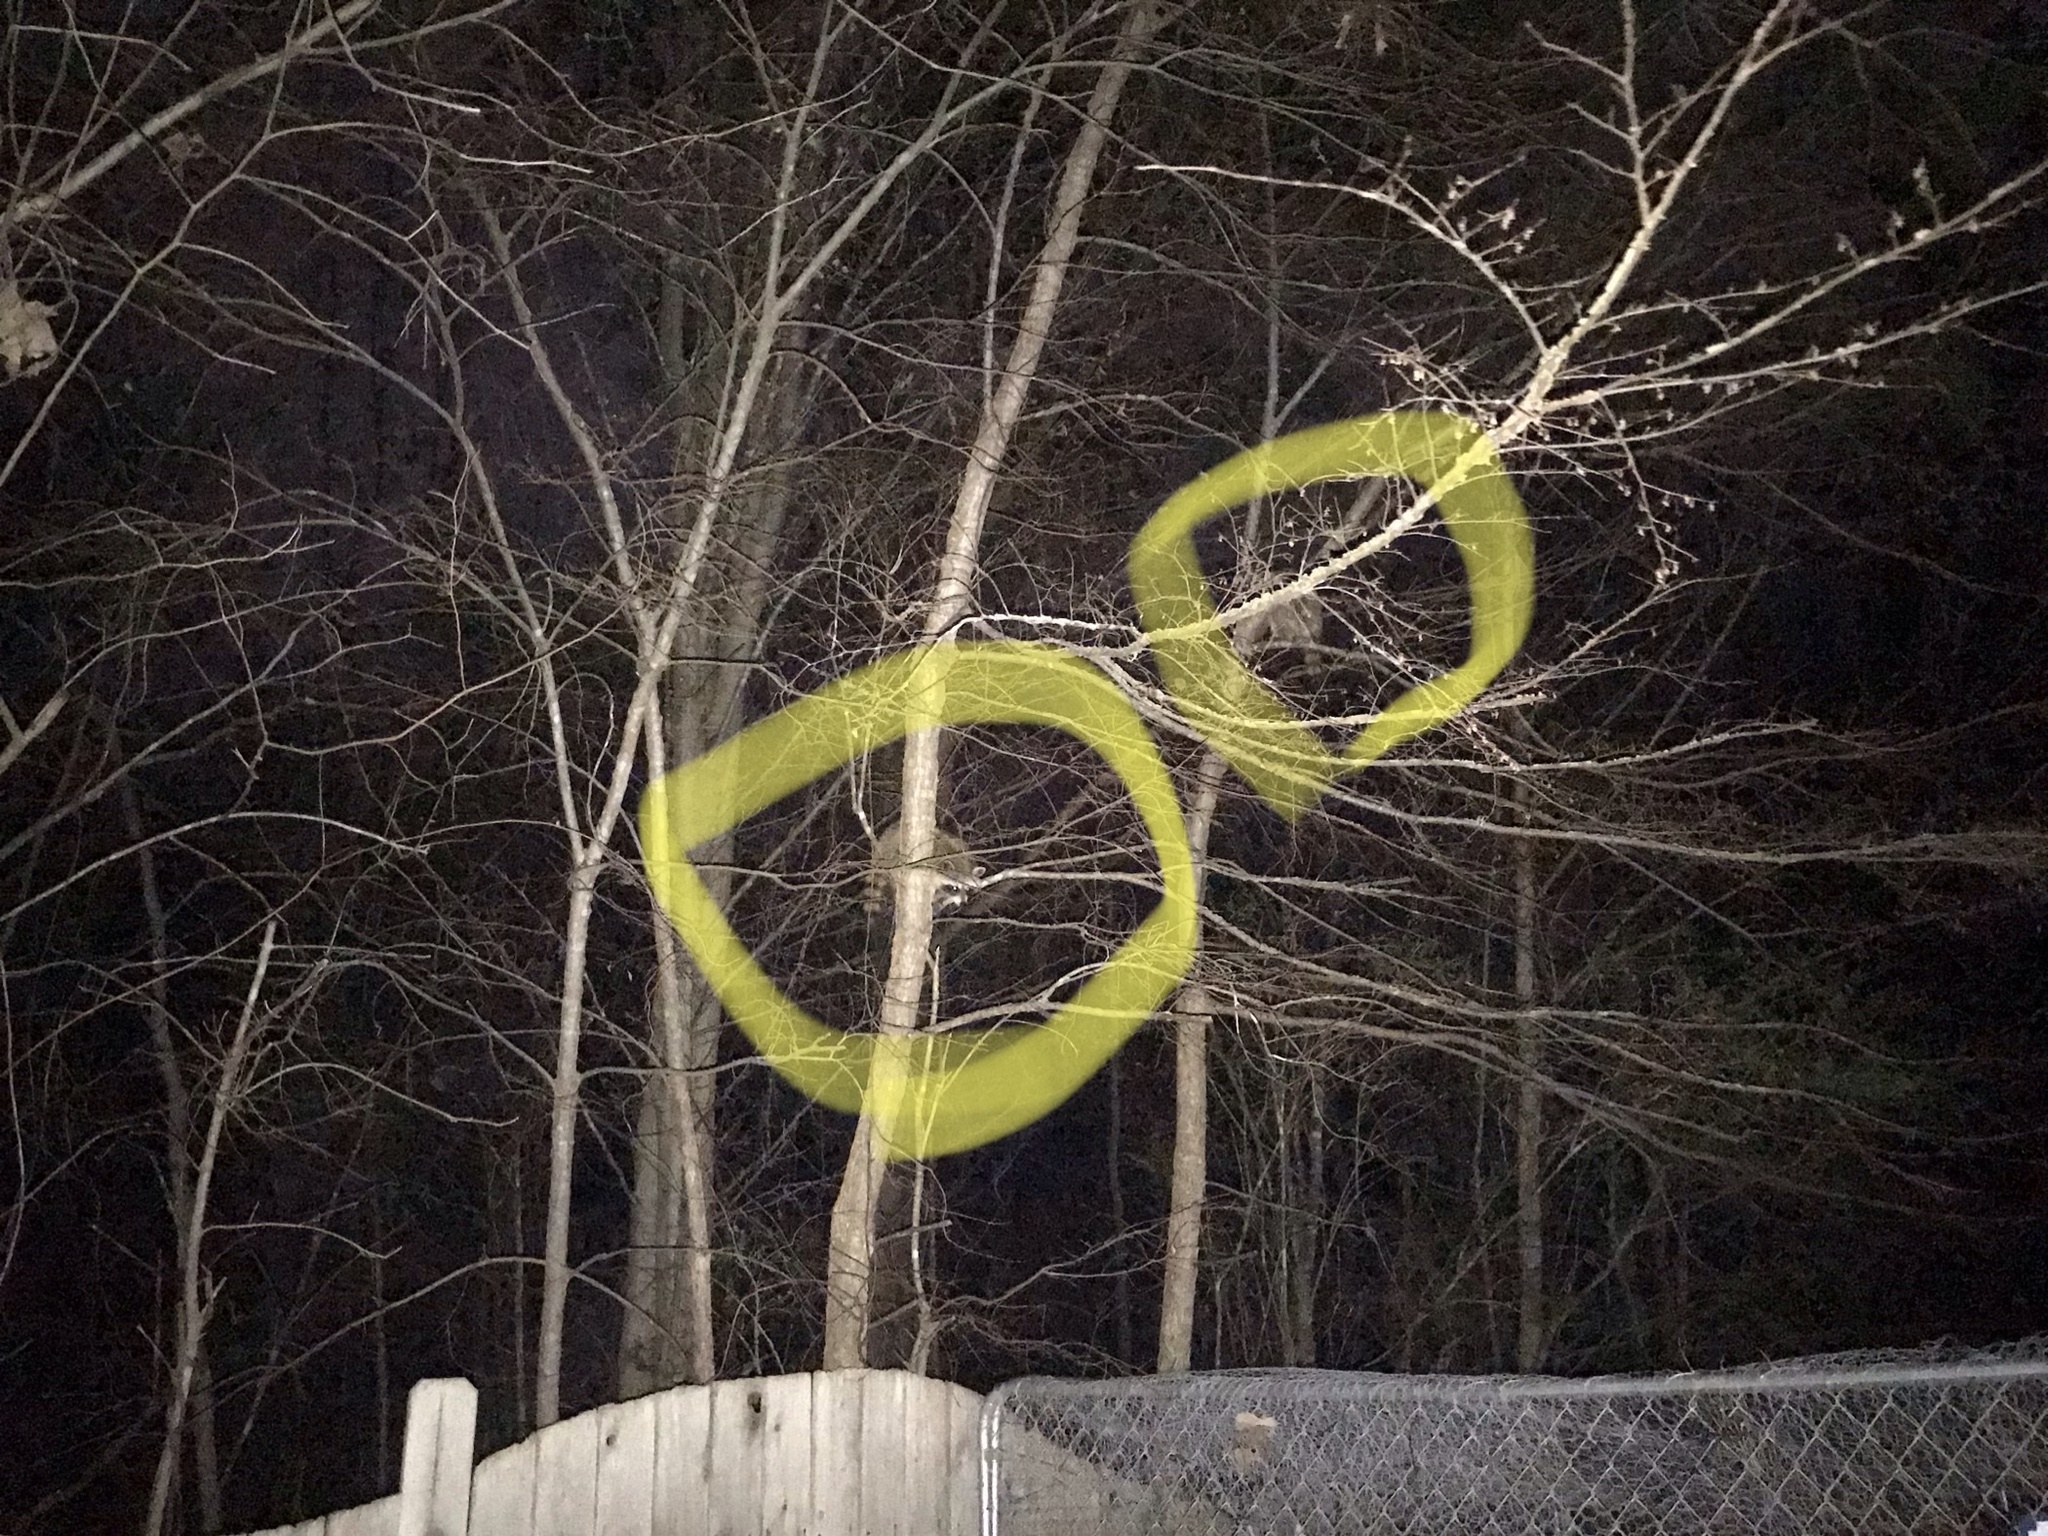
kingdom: Animalia
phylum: Chordata
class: Mammalia
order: Carnivora
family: Procyonidae
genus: Procyon
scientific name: Procyon lotor
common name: Raccoon
